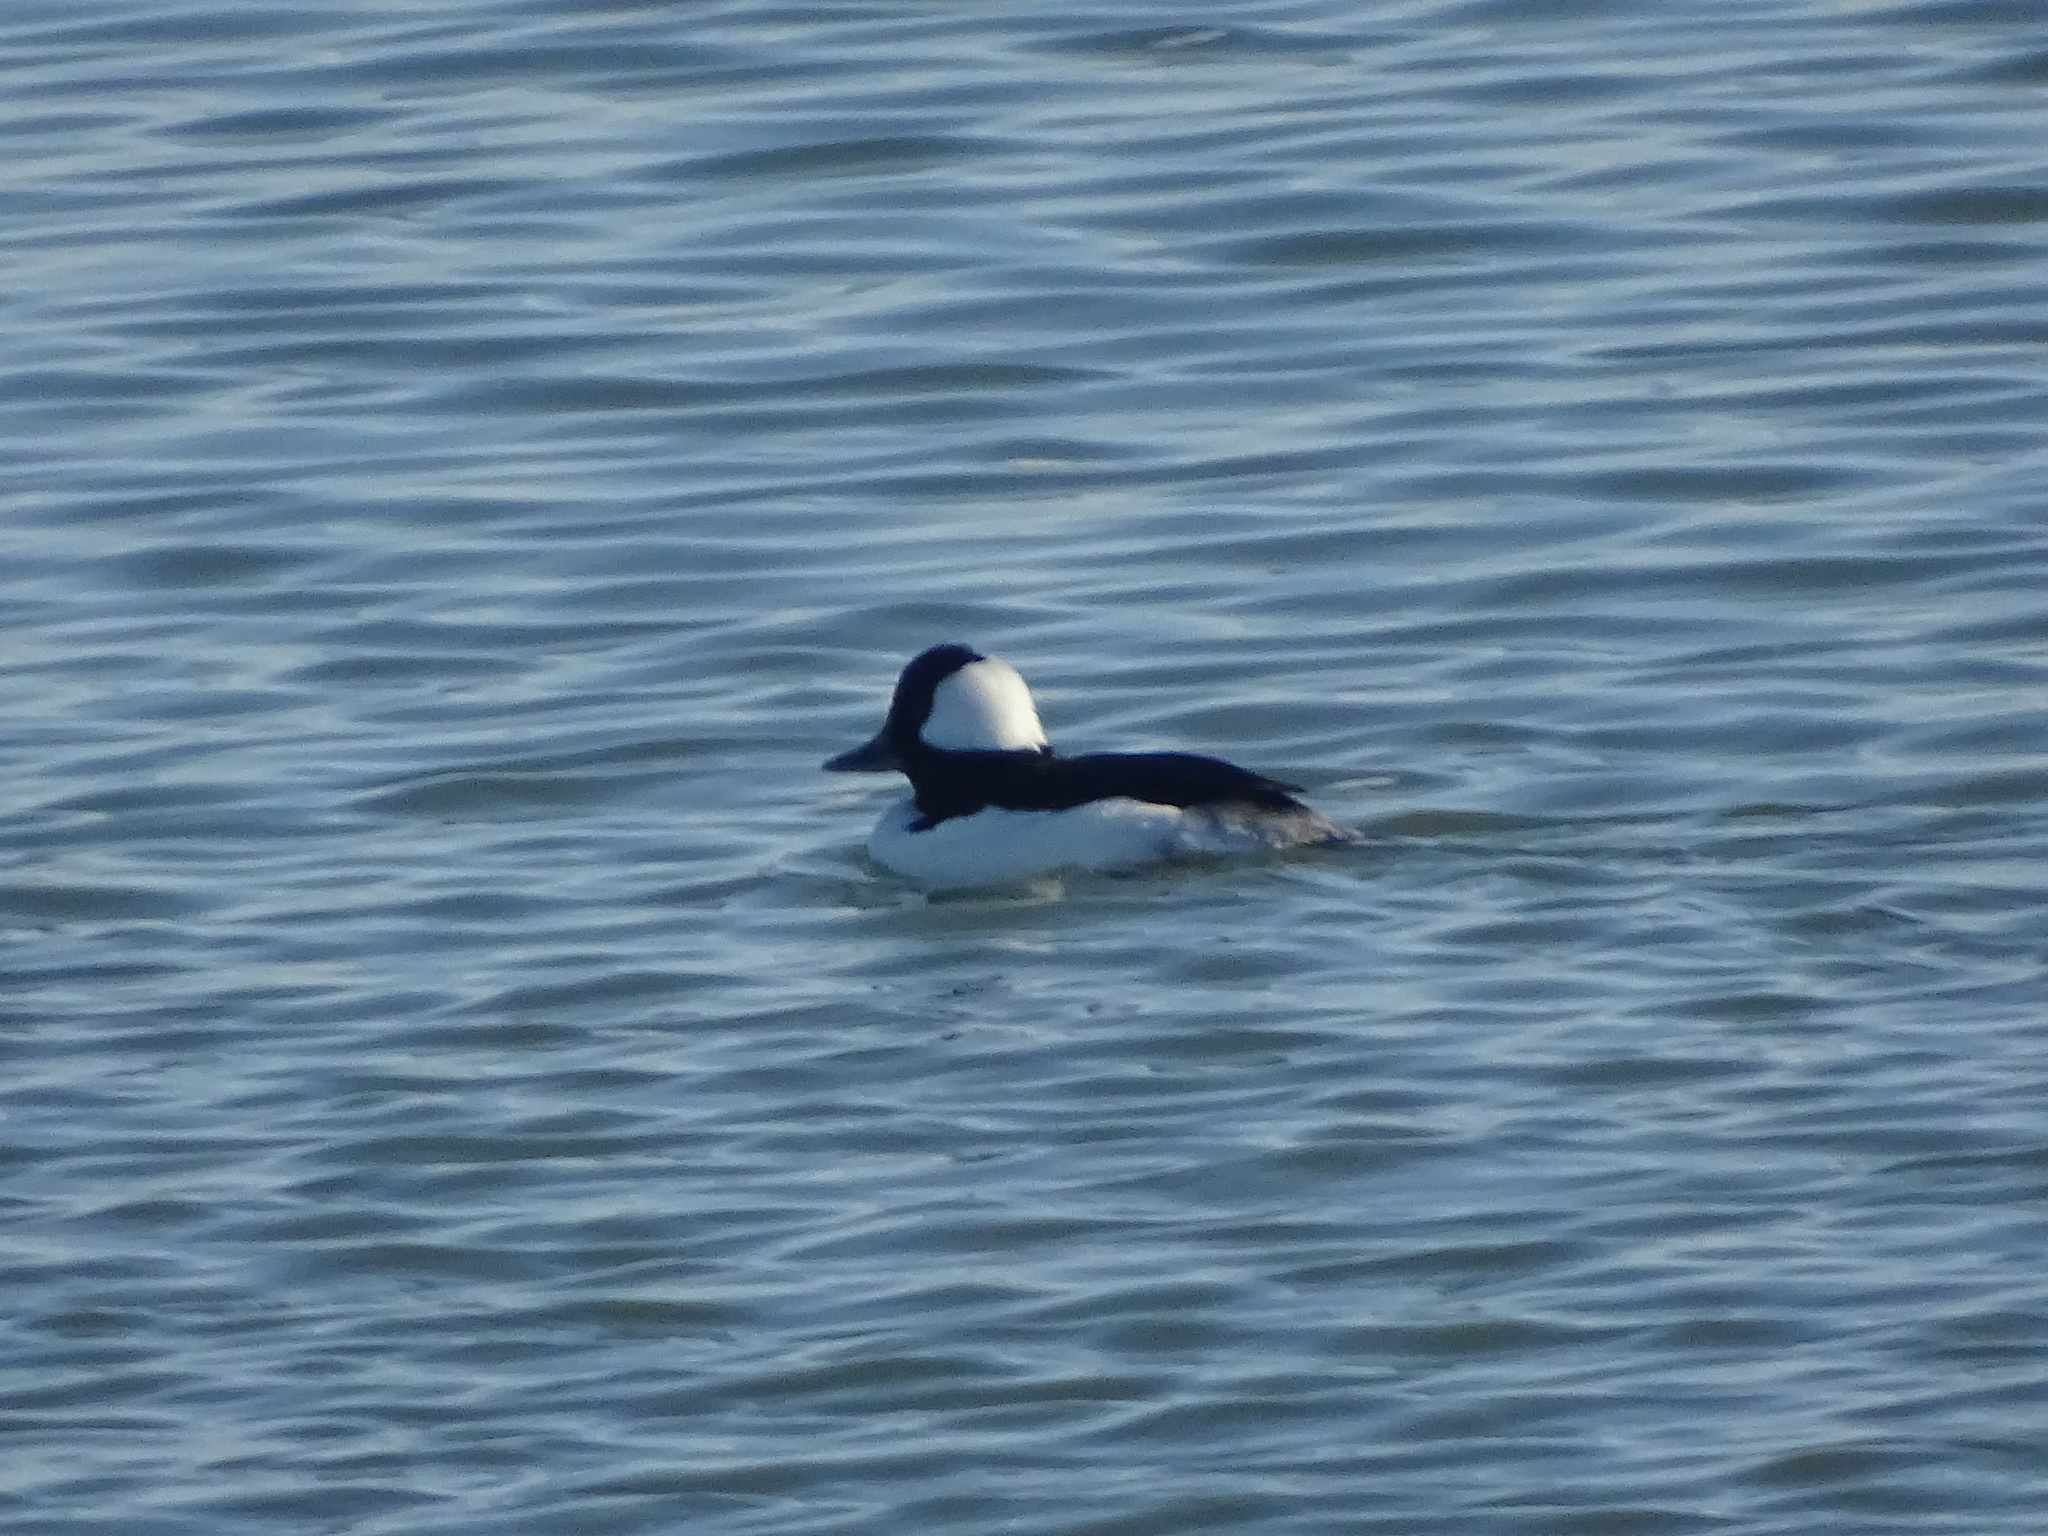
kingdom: Animalia
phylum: Chordata
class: Aves
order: Anseriformes
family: Anatidae
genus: Bucephala
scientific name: Bucephala albeola
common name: Bufflehead
